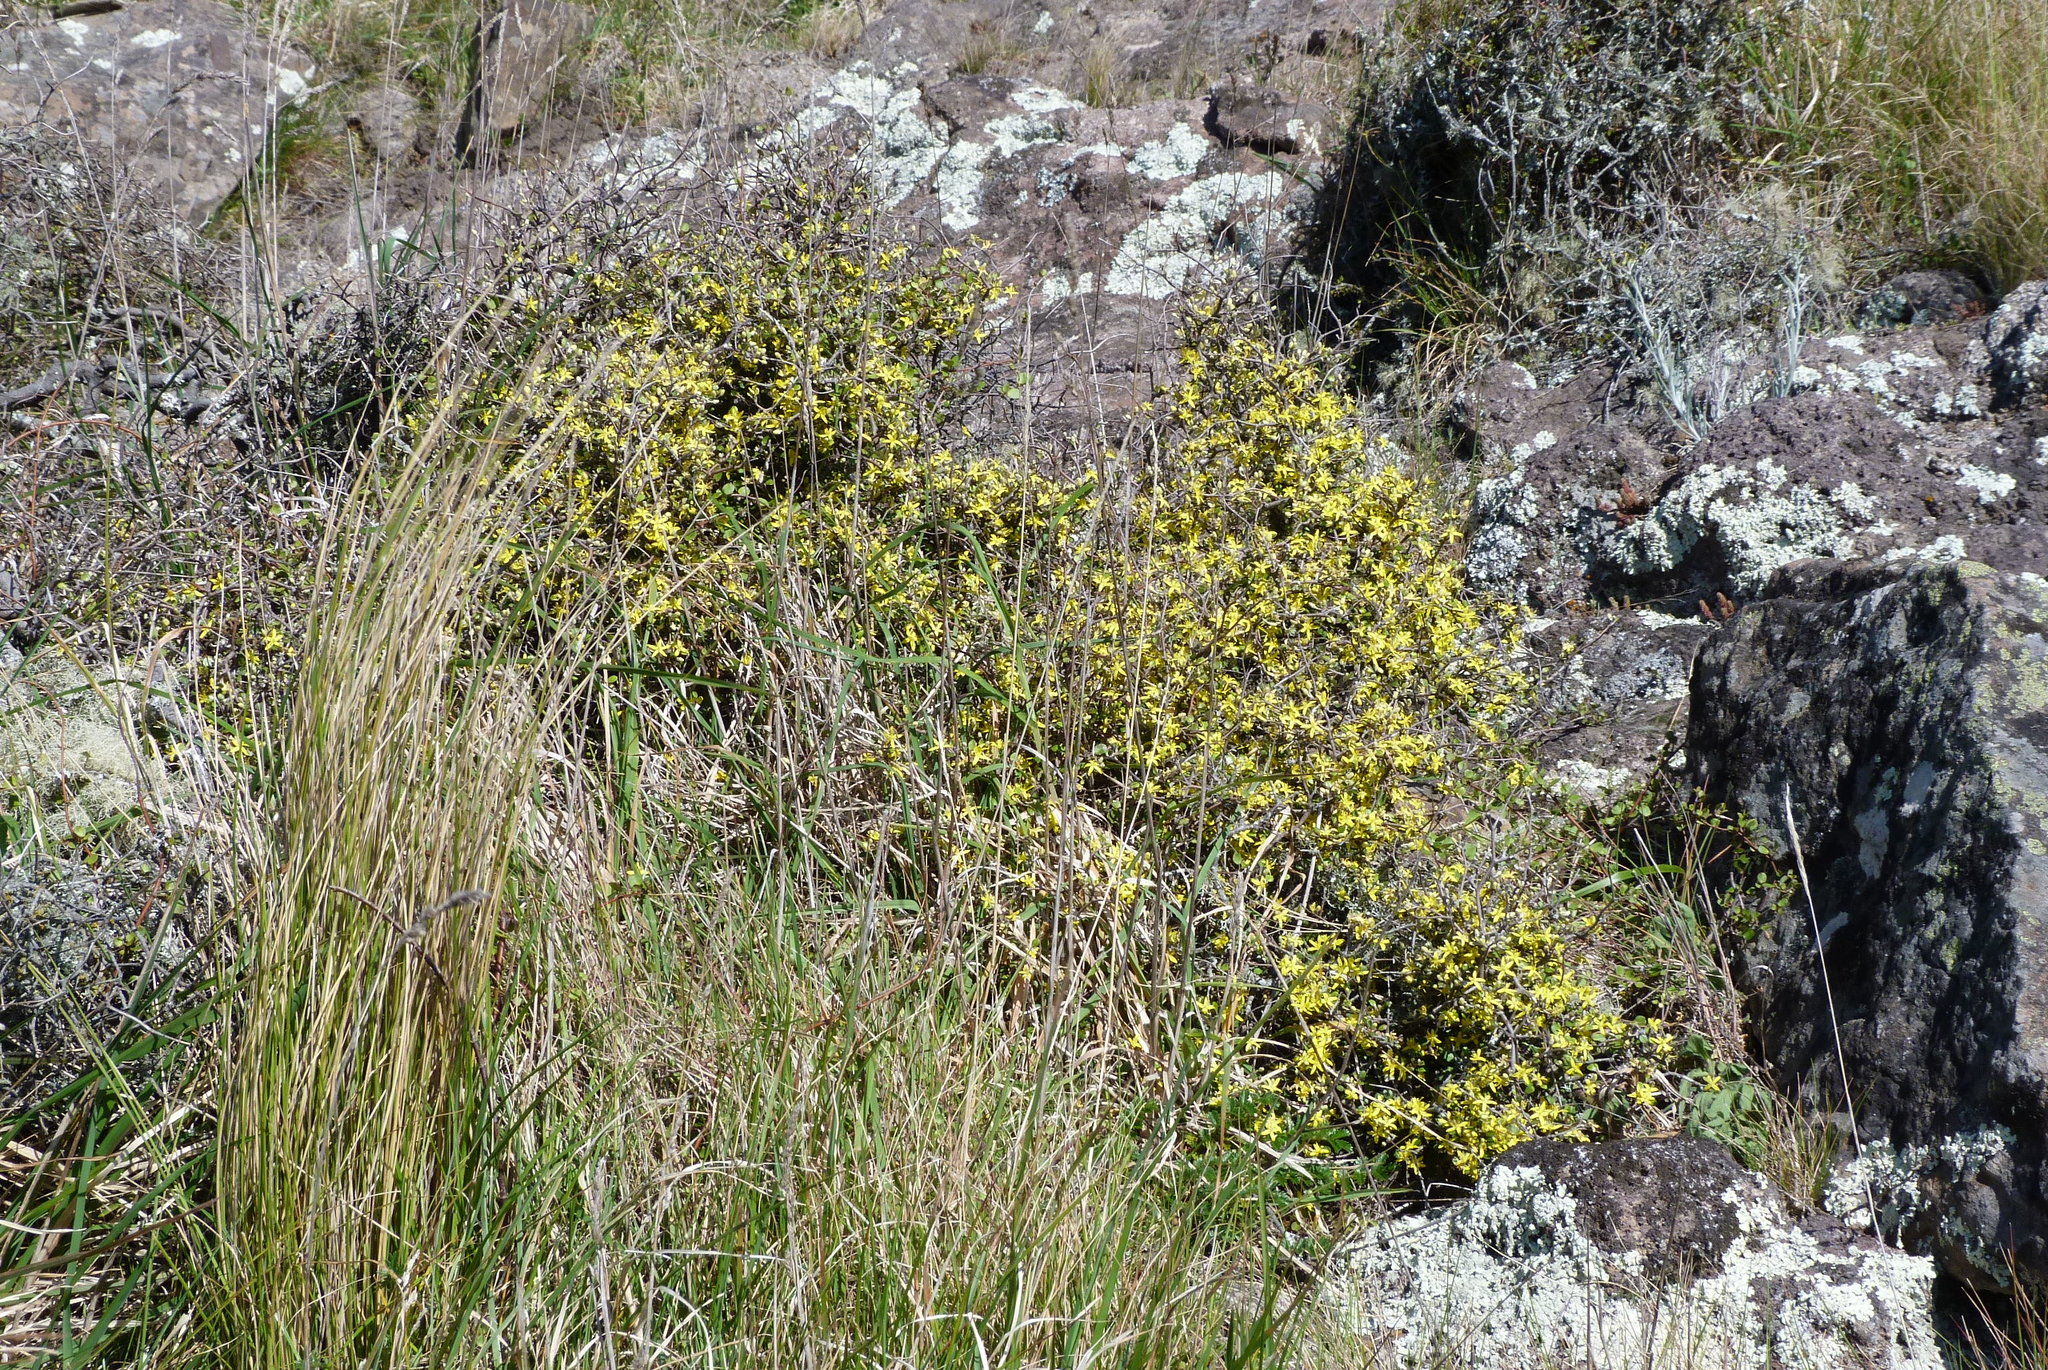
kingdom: Plantae
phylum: Tracheophyta
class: Magnoliopsida
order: Asterales
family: Argophyllaceae
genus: Corokia
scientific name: Corokia cotoneaster
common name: Wire nettingbush
